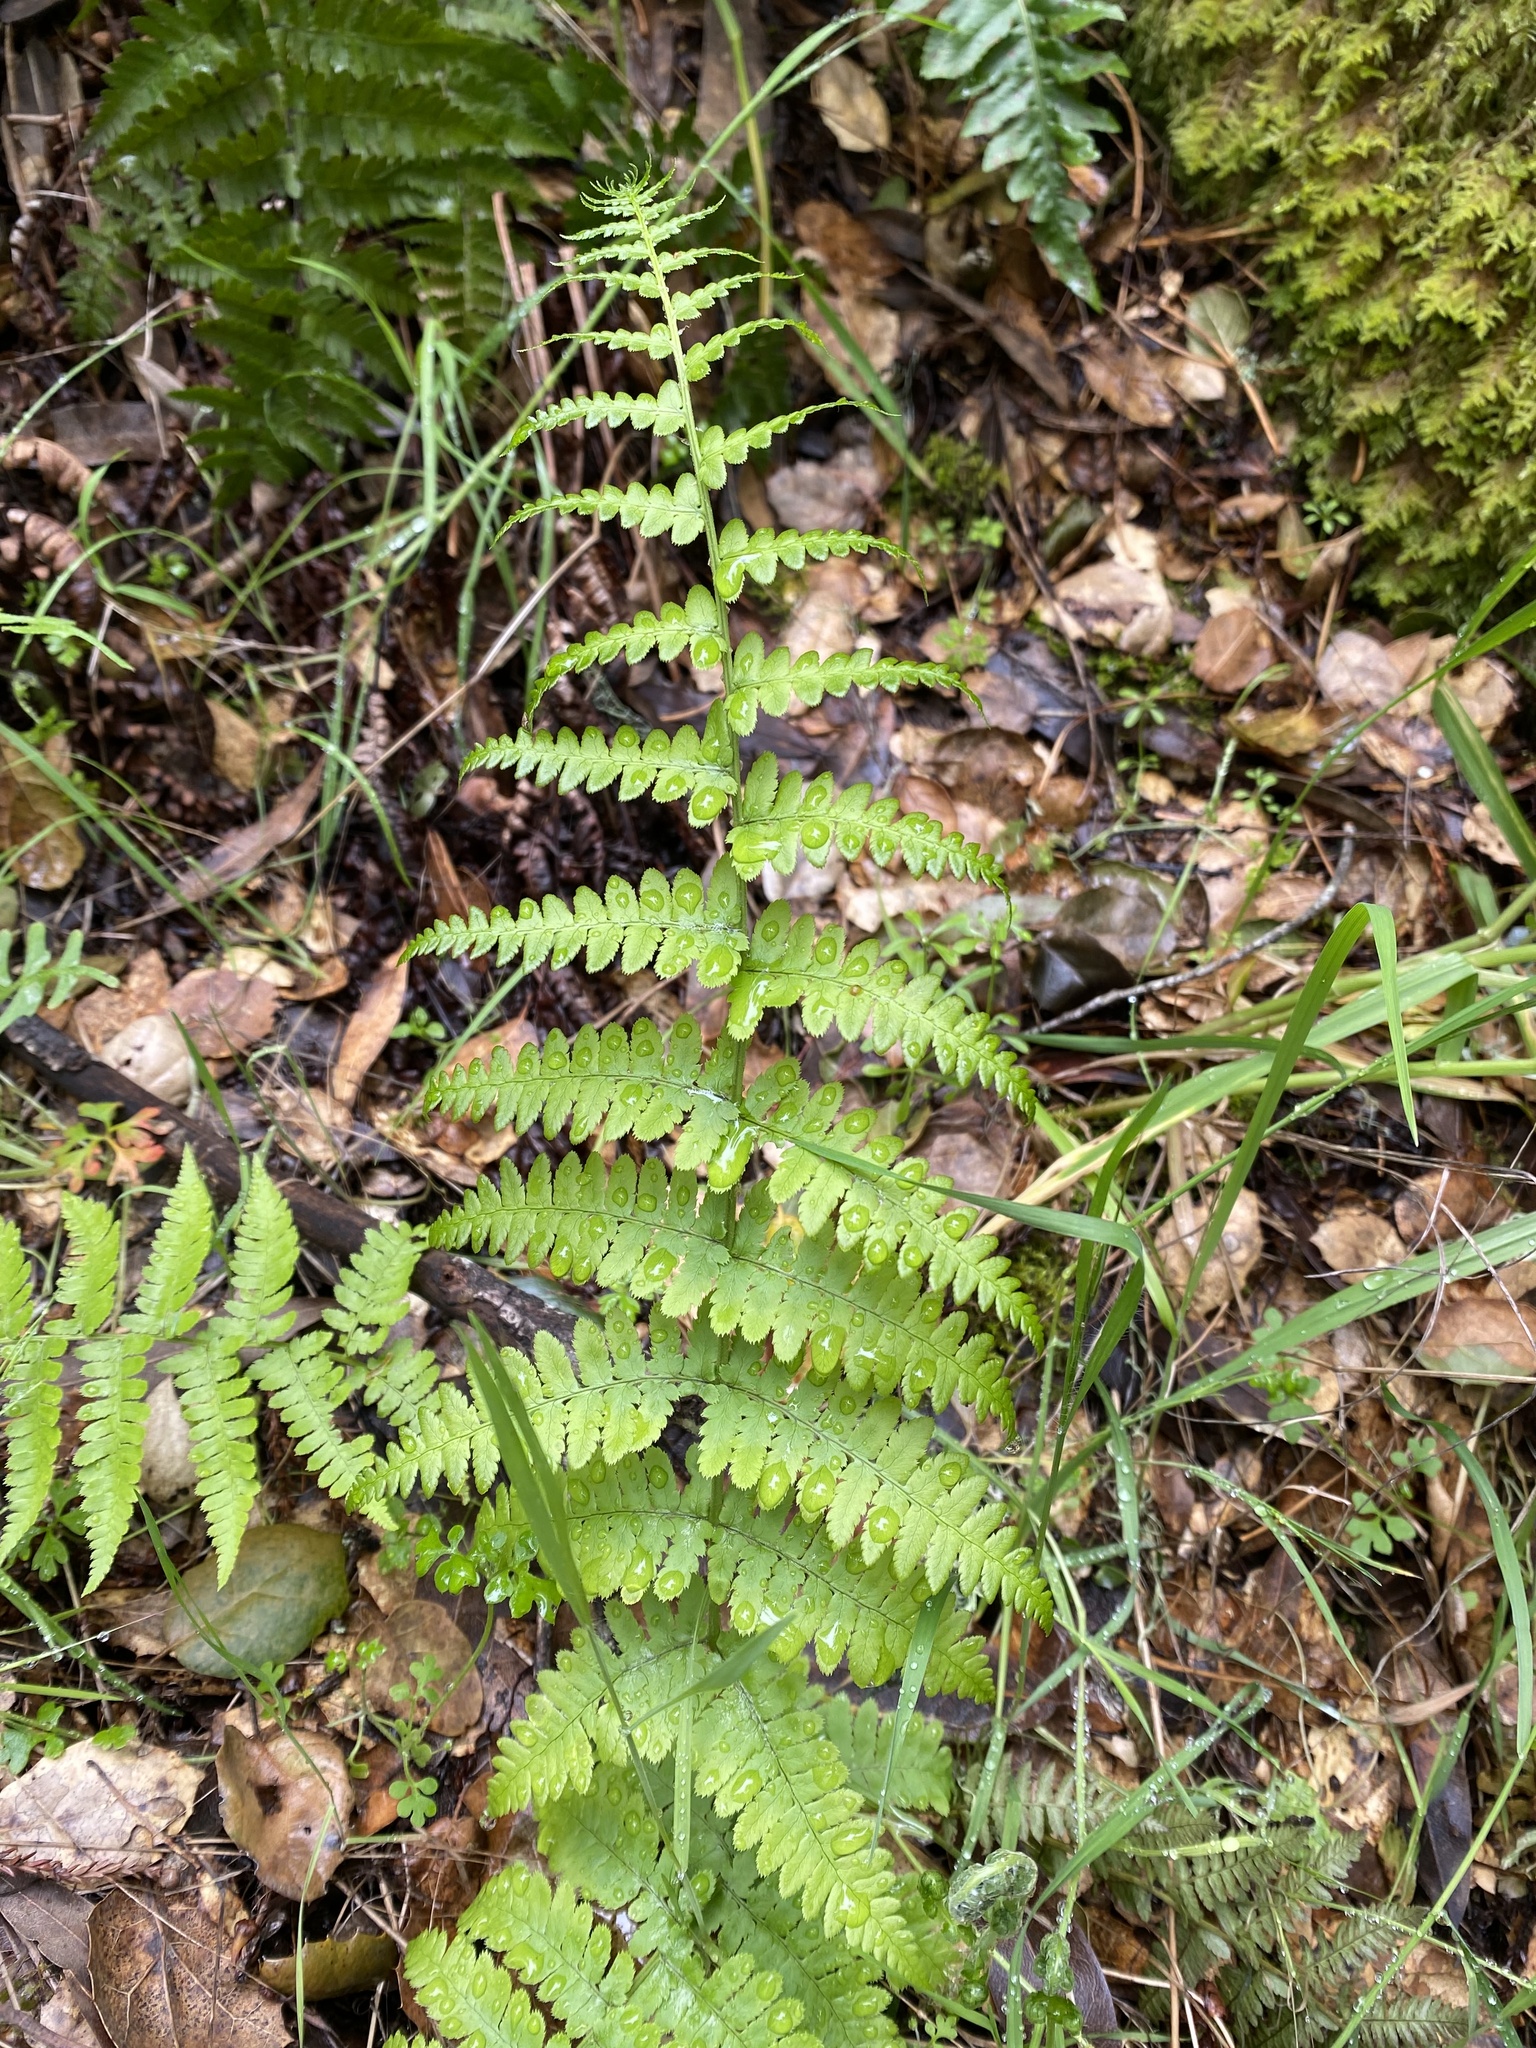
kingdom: Plantae
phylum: Tracheophyta
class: Polypodiopsida
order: Polypodiales
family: Dryopteridaceae
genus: Dryopteris
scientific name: Dryopteris arguta
